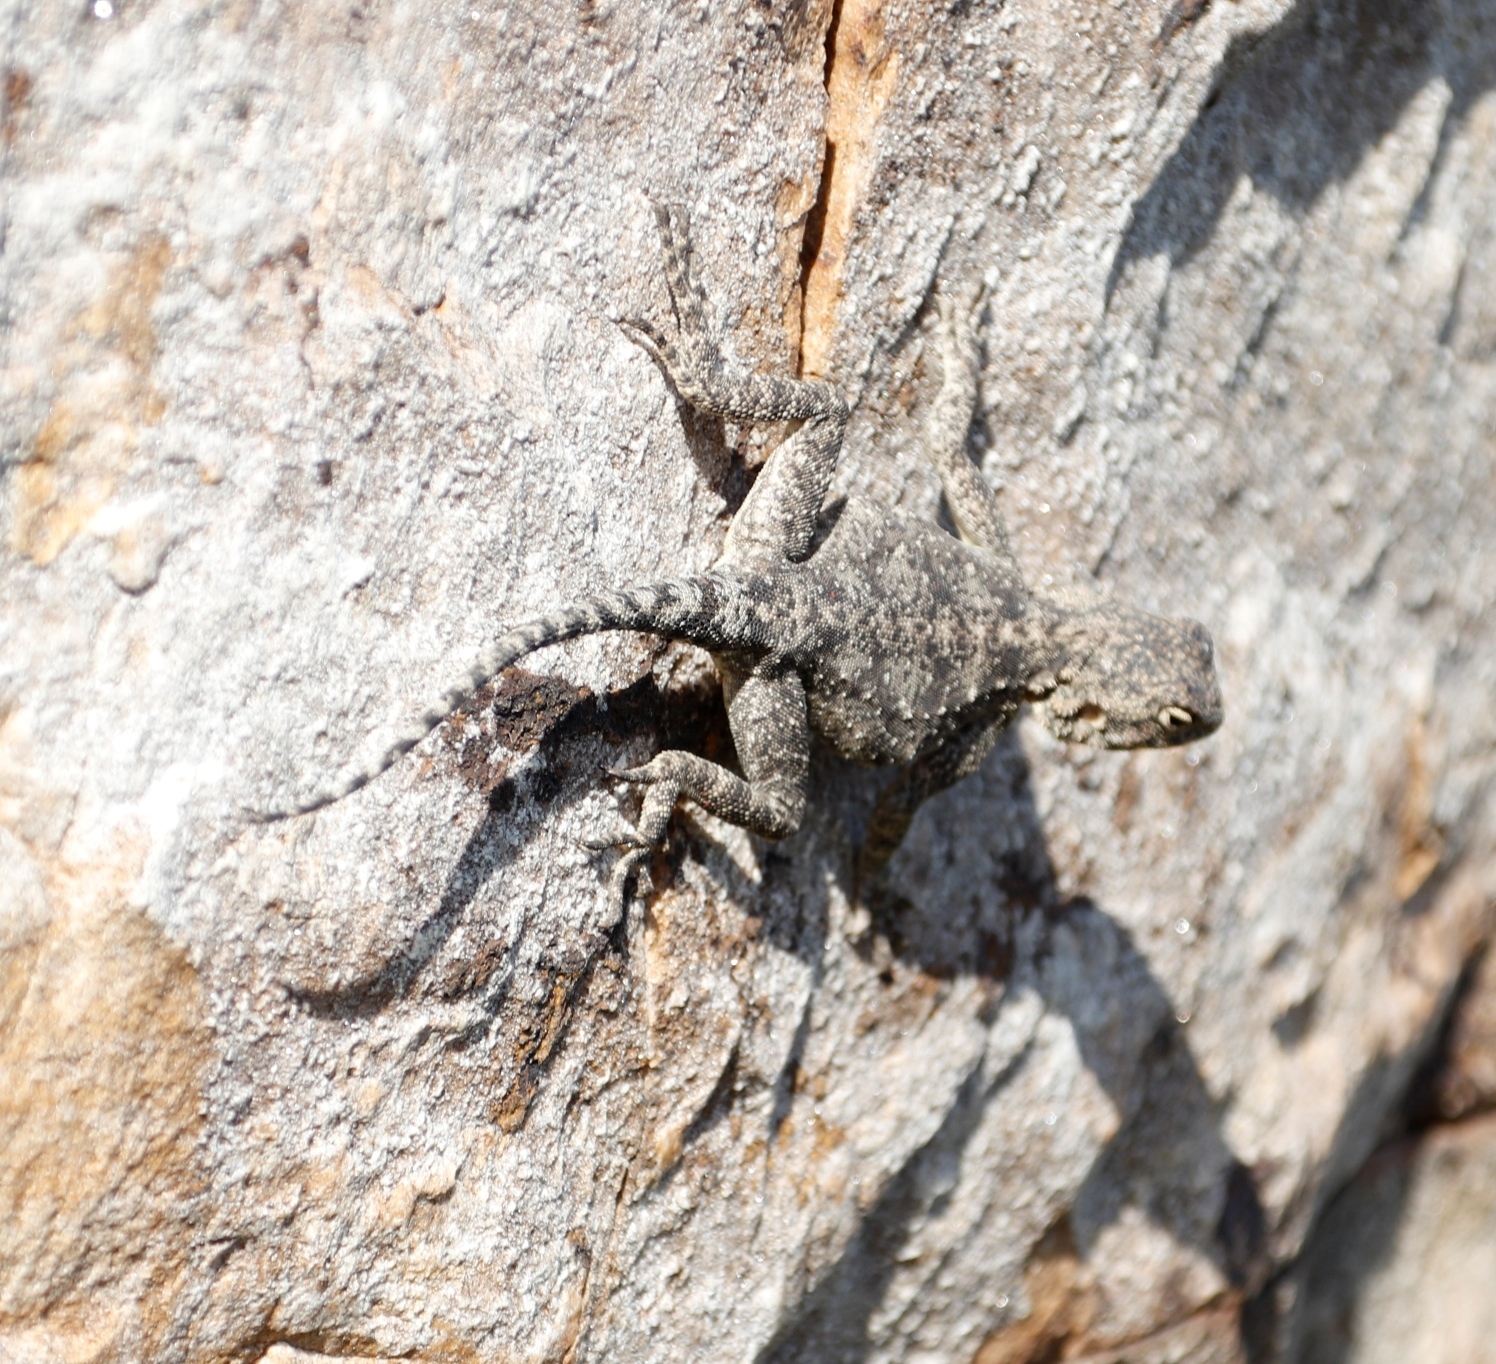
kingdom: Animalia
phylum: Chordata
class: Squamata
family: Agamidae
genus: Agama
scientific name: Agama atra
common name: Southern african rock agama
